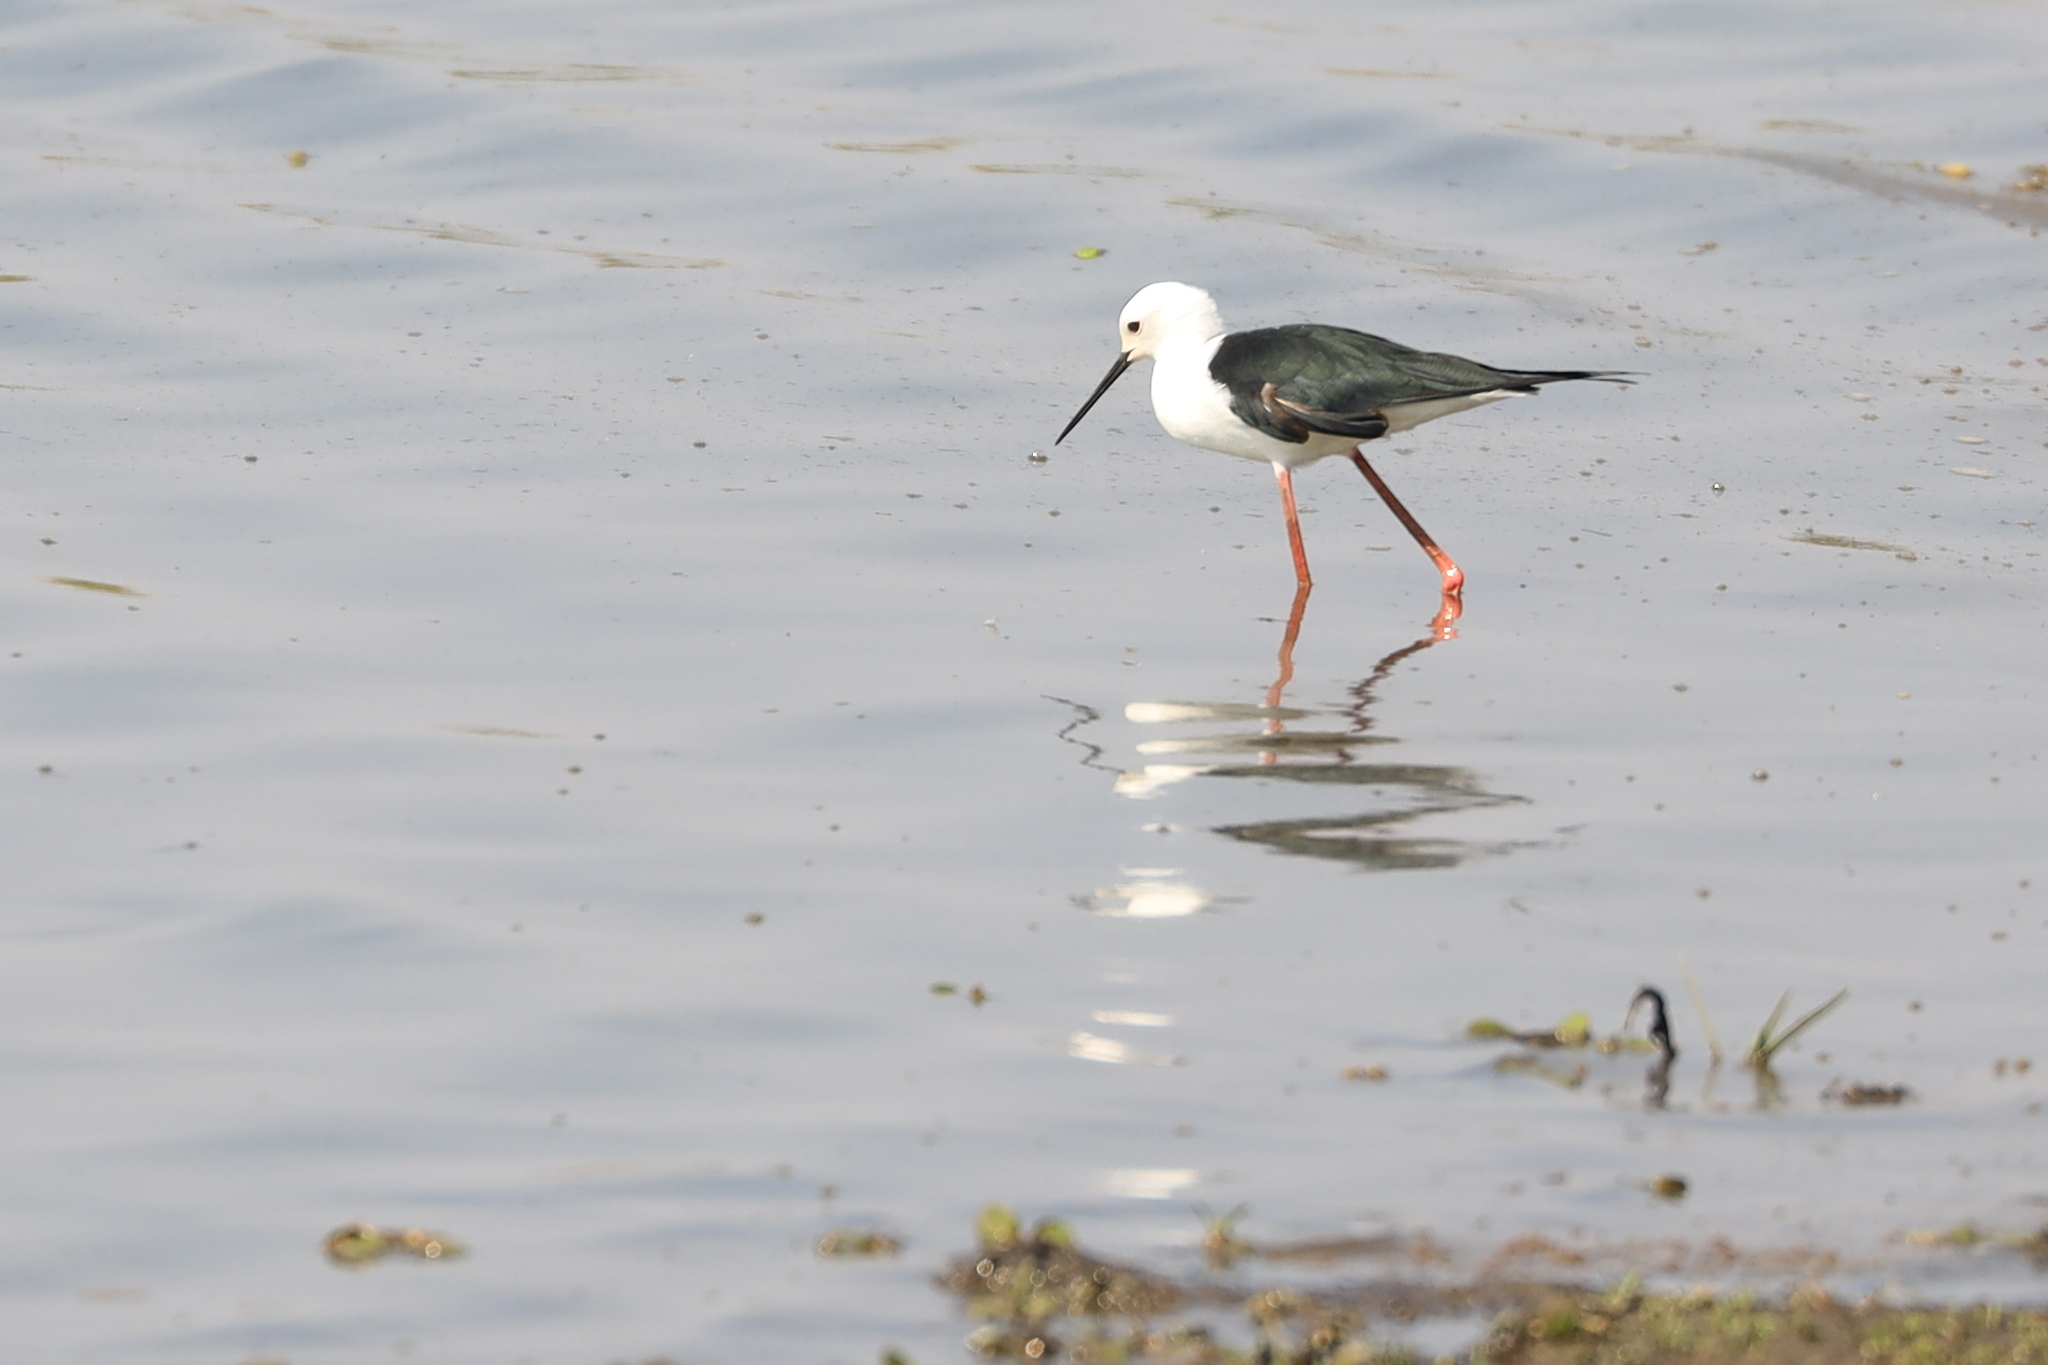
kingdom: Animalia
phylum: Chordata
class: Aves
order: Charadriiformes
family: Recurvirostridae
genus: Himantopus
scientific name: Himantopus himantopus
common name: Black-winged stilt
